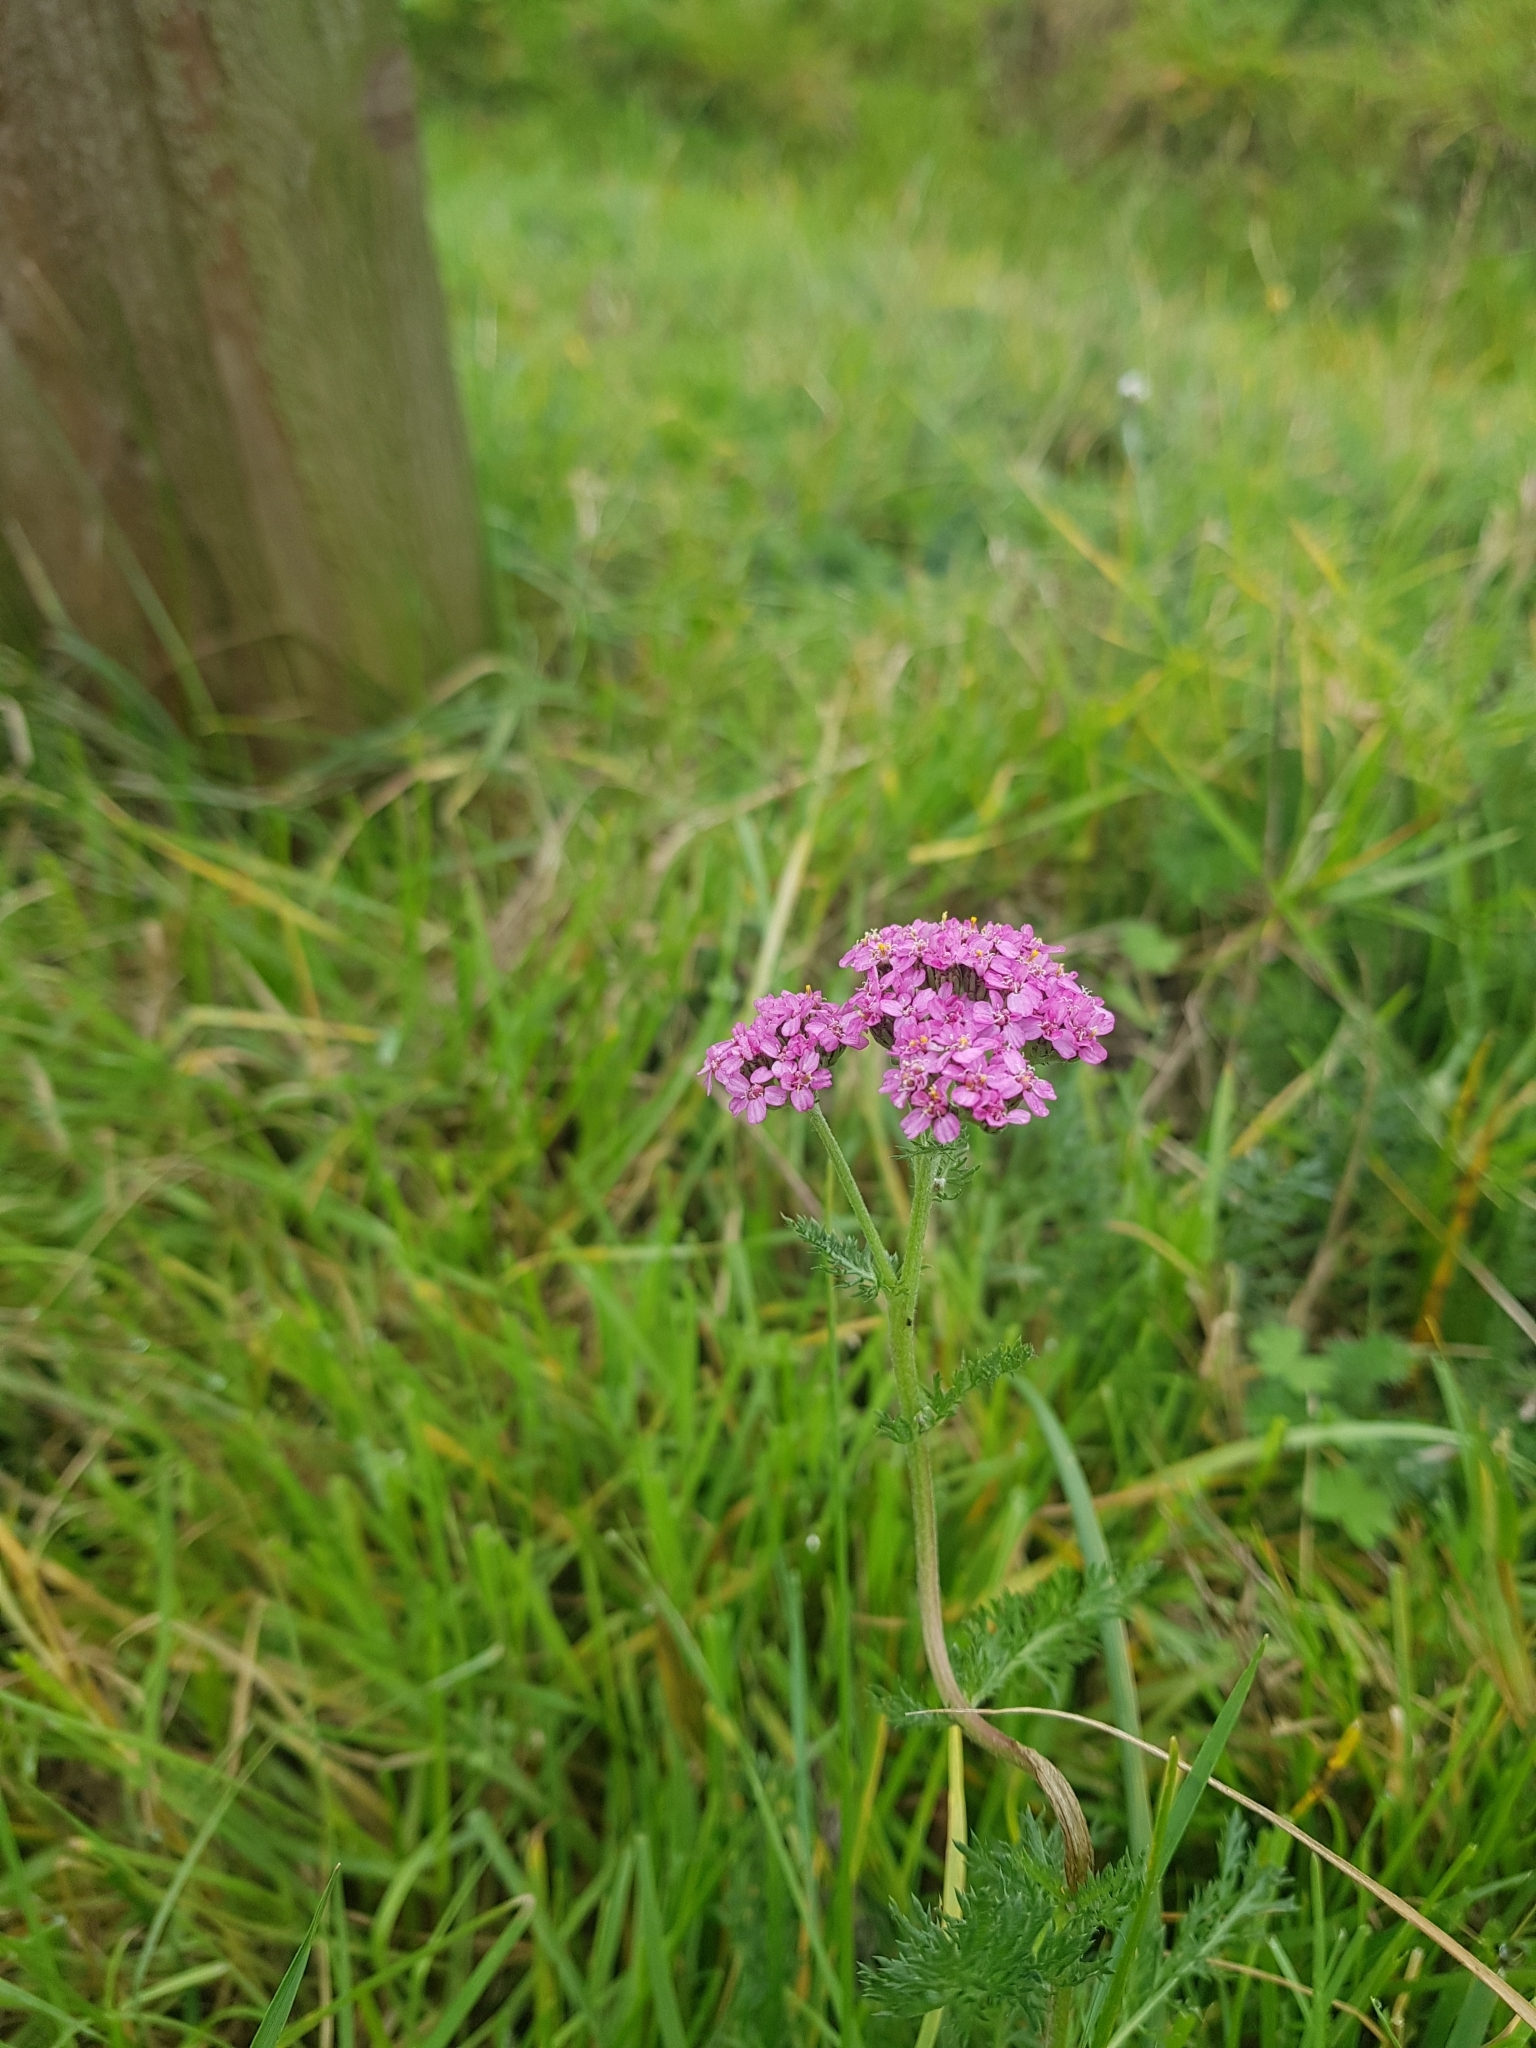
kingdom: Plantae
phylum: Tracheophyta
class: Magnoliopsida
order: Asterales
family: Asteraceae
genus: Achillea
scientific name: Achillea millefolium
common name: Yarrow
